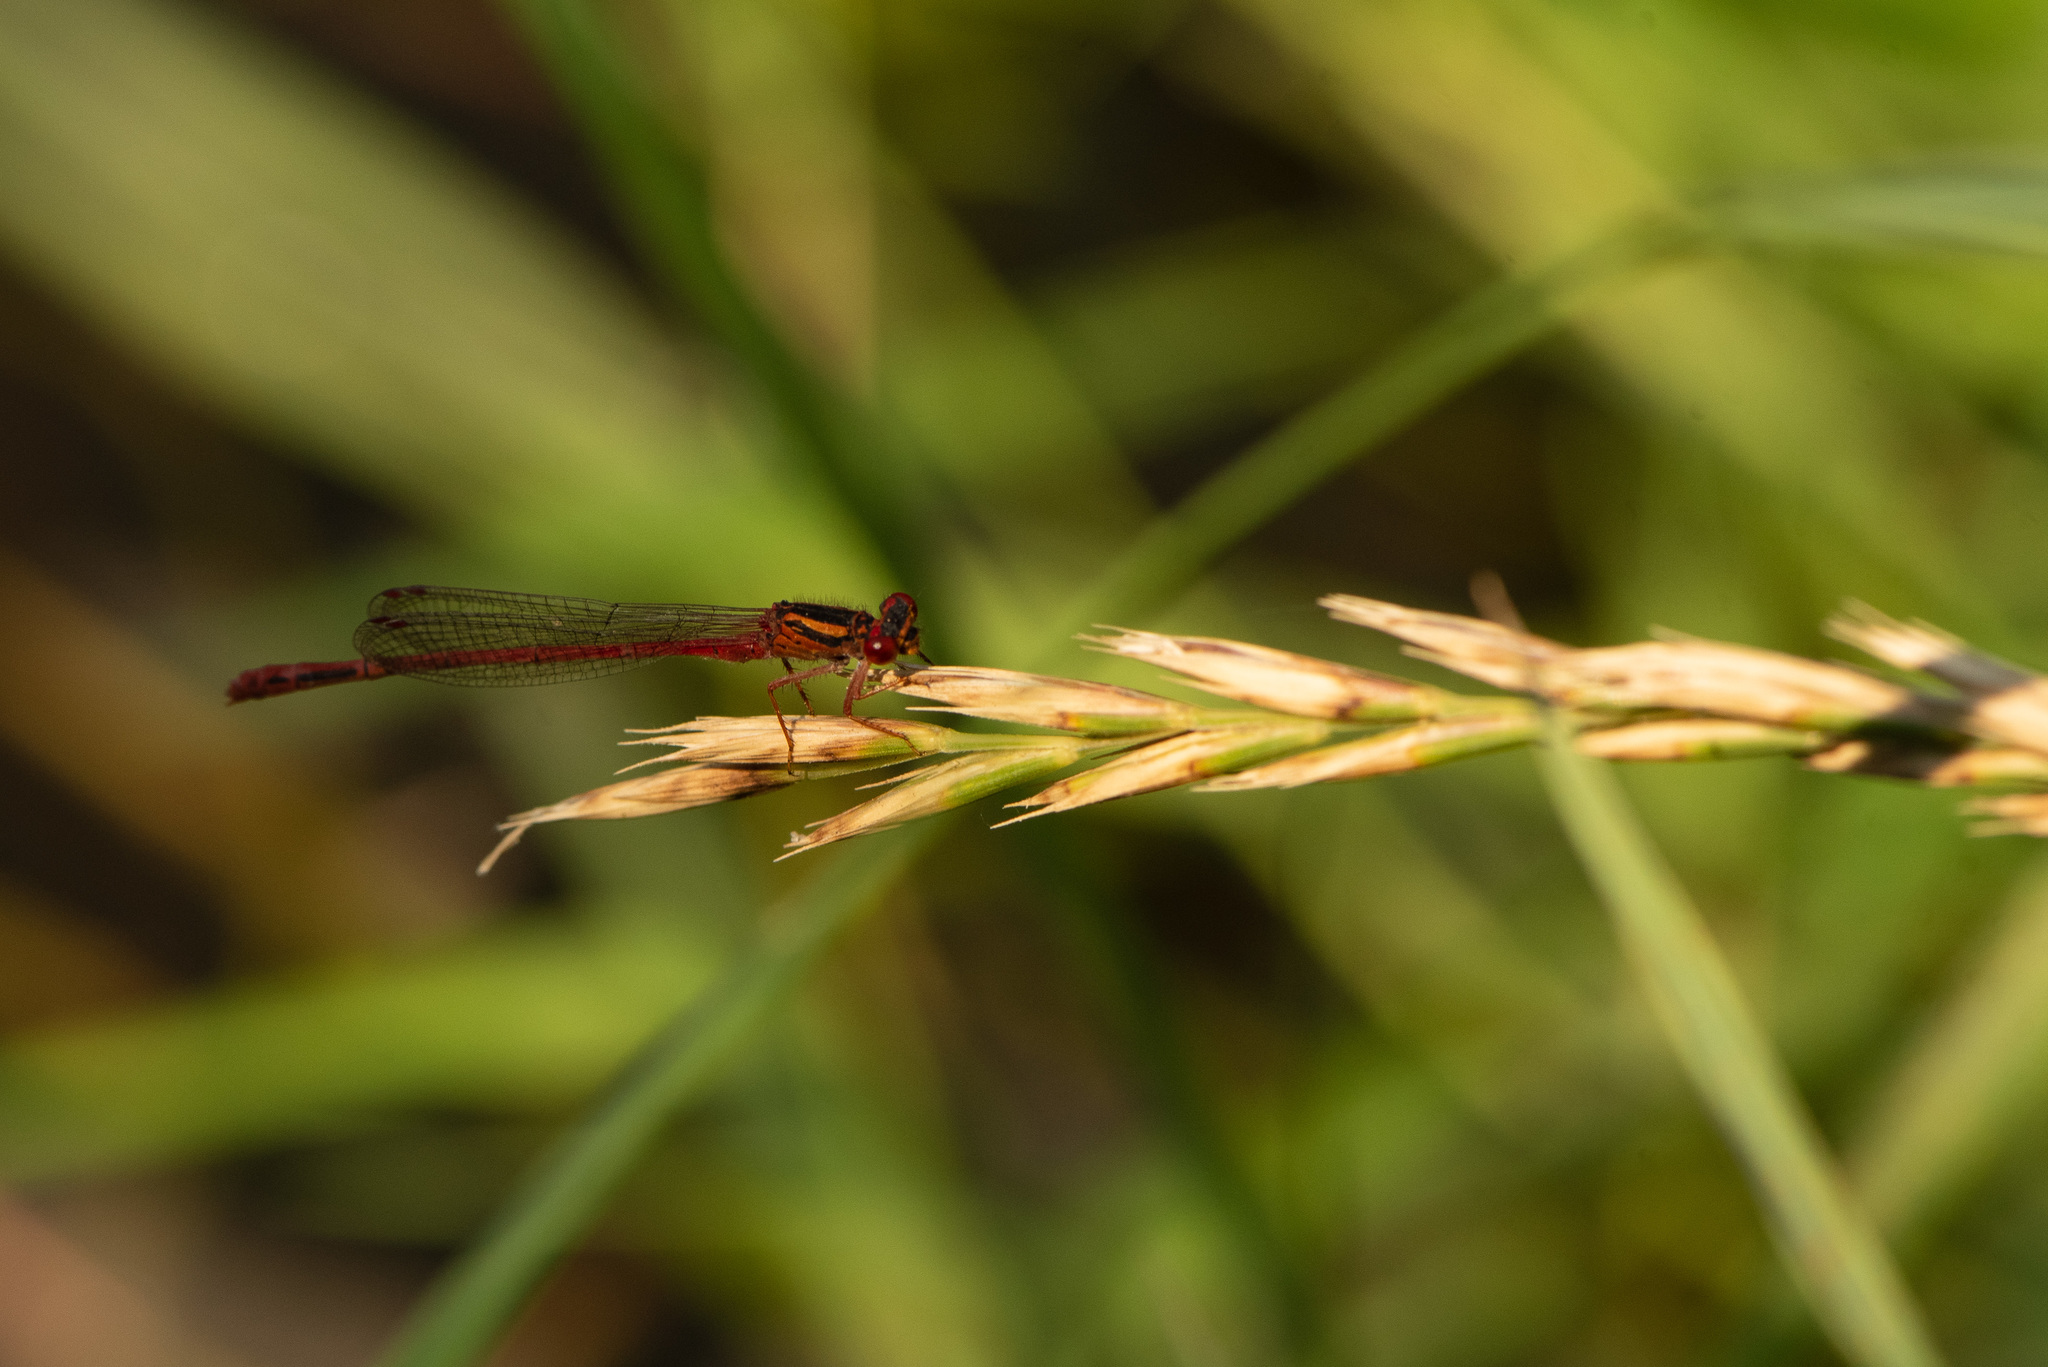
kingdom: Animalia
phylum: Arthropoda
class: Insecta
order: Odonata
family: Coenagrionidae
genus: Xanthocnemis
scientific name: Xanthocnemis zealandica
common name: Common redcoat damselfly
